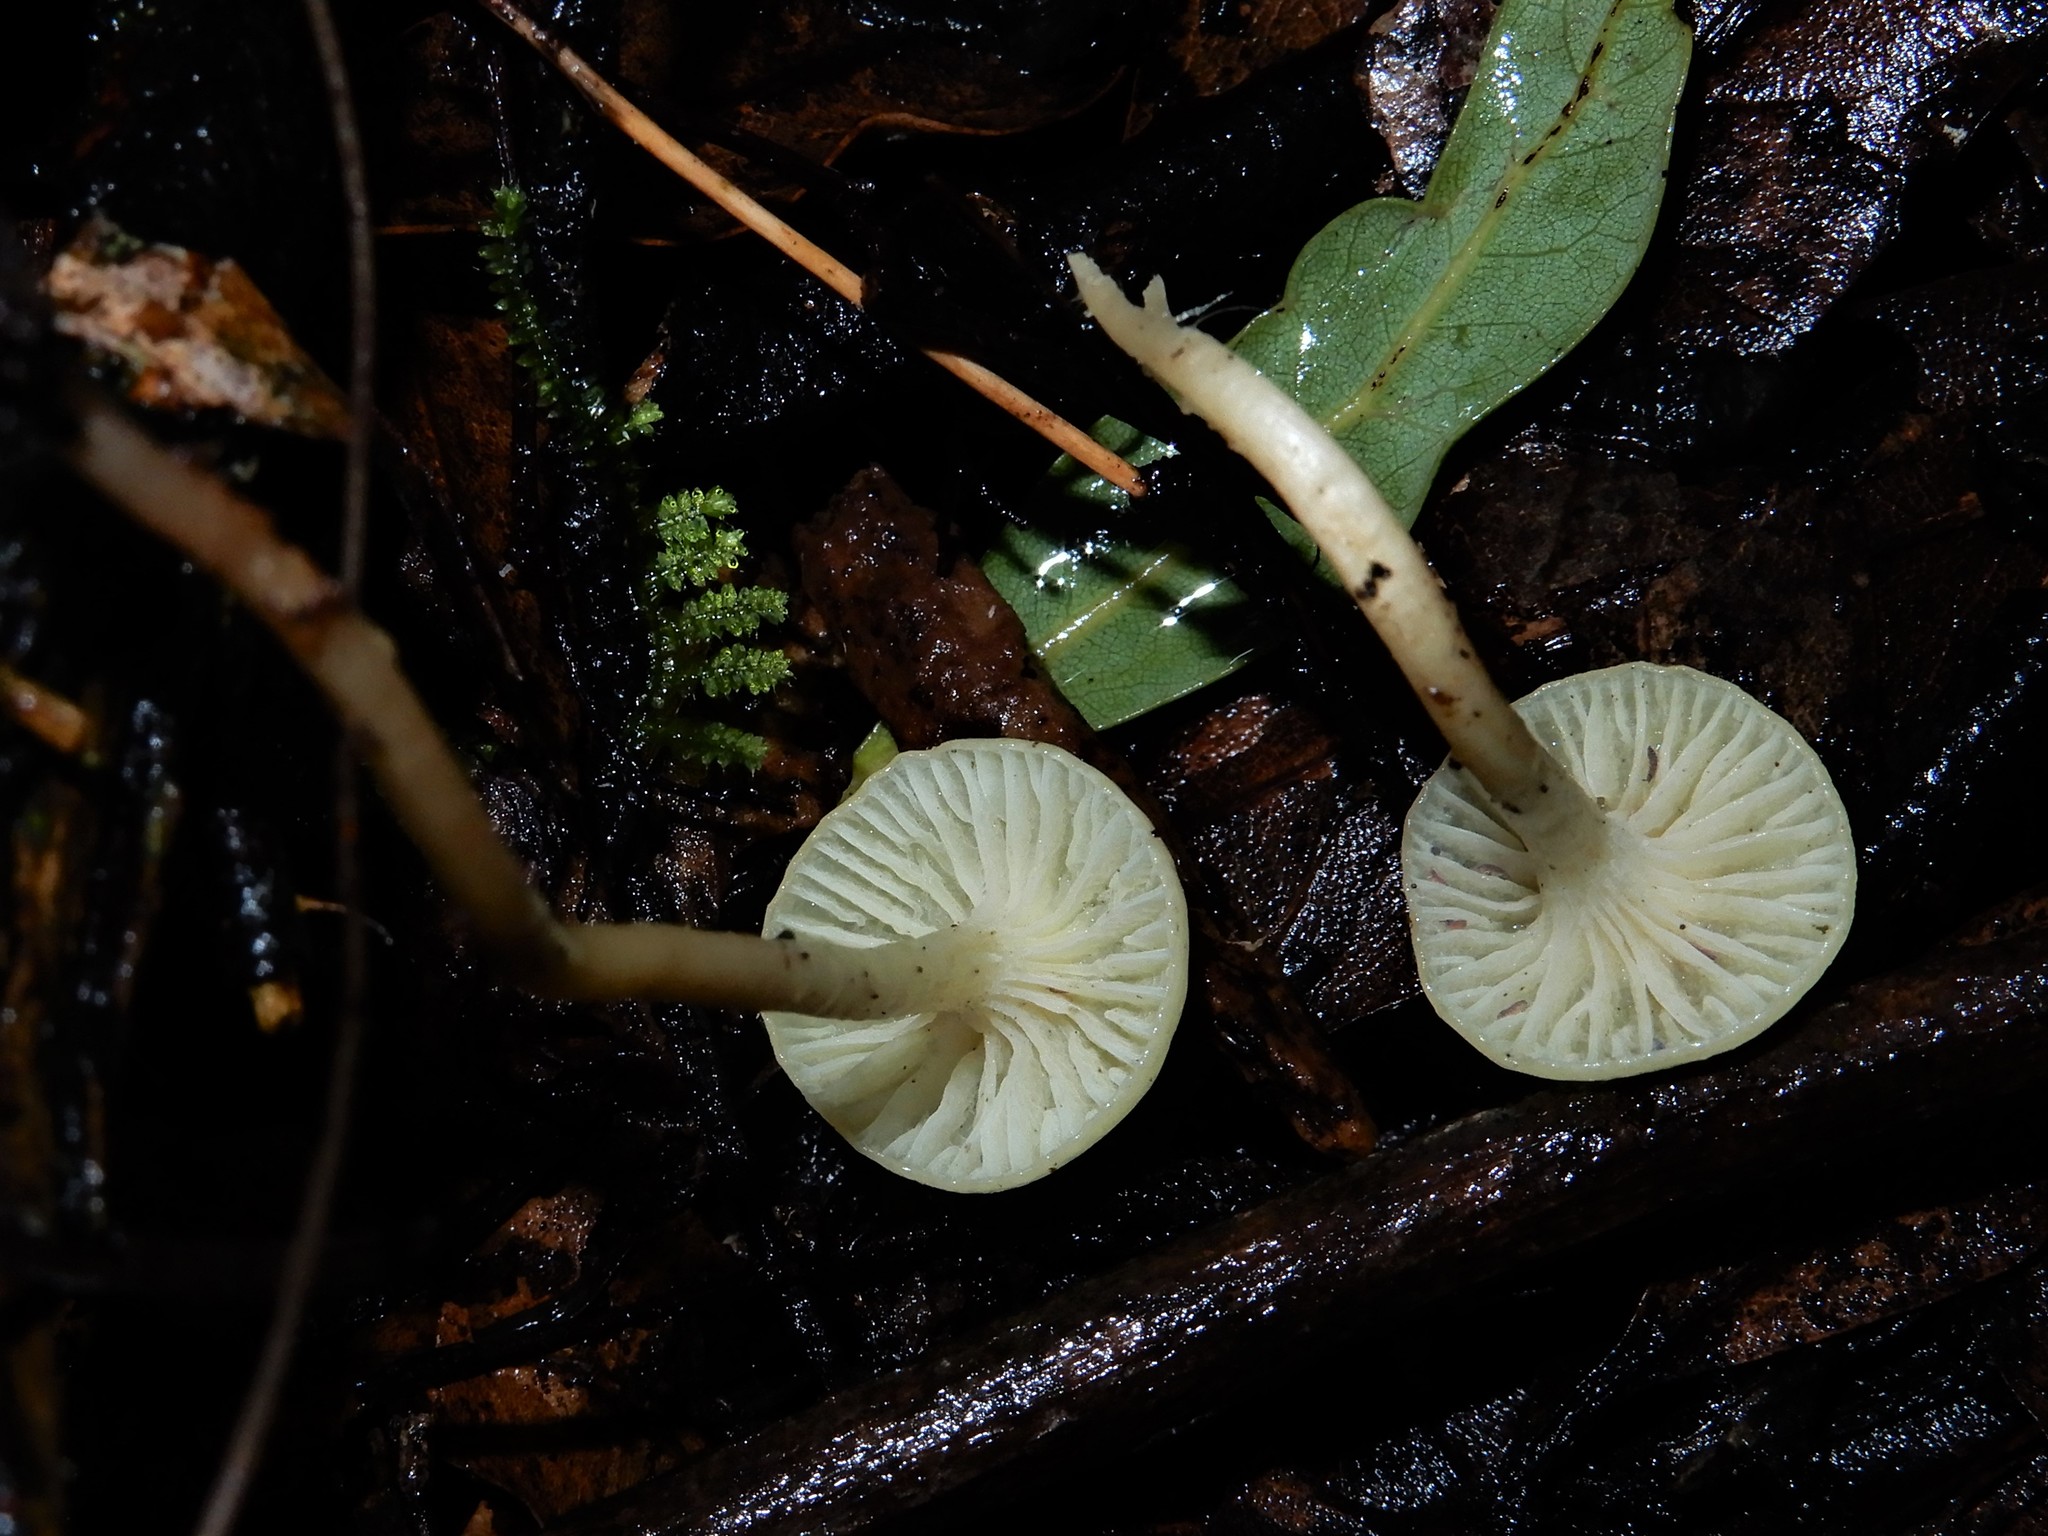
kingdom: Fungi
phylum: Basidiomycota
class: Agaricomycetes
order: Agaricales
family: Hygrophoraceae
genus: Cuphophyllus
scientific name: Cuphophyllus
